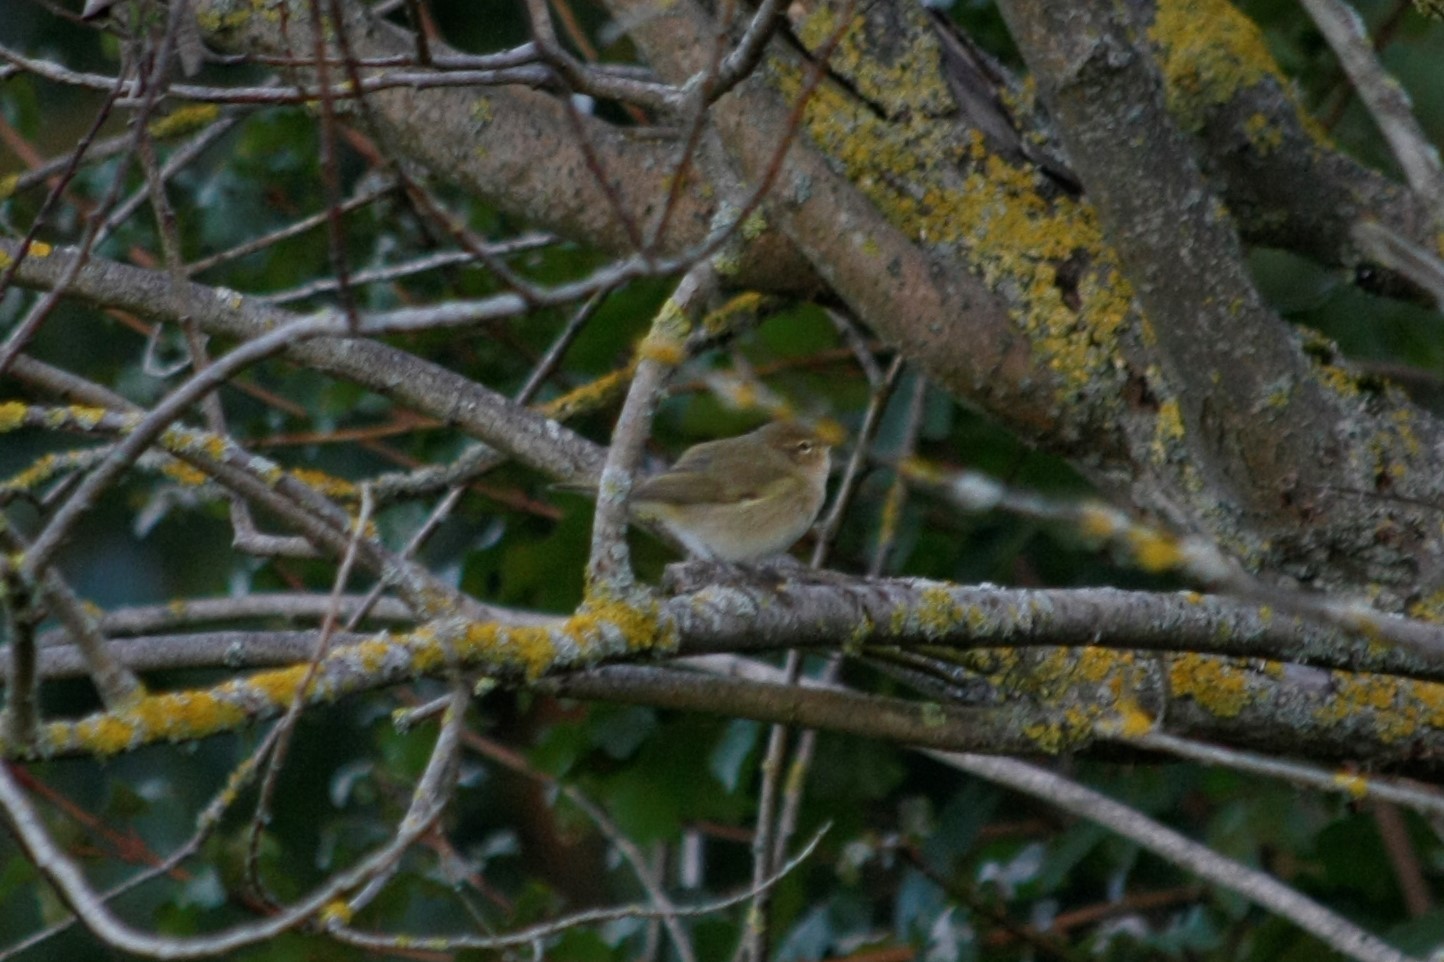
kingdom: Animalia
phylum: Chordata
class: Aves
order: Passeriformes
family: Phylloscopidae
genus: Phylloscopus
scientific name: Phylloscopus collybita
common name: Common chiffchaff
